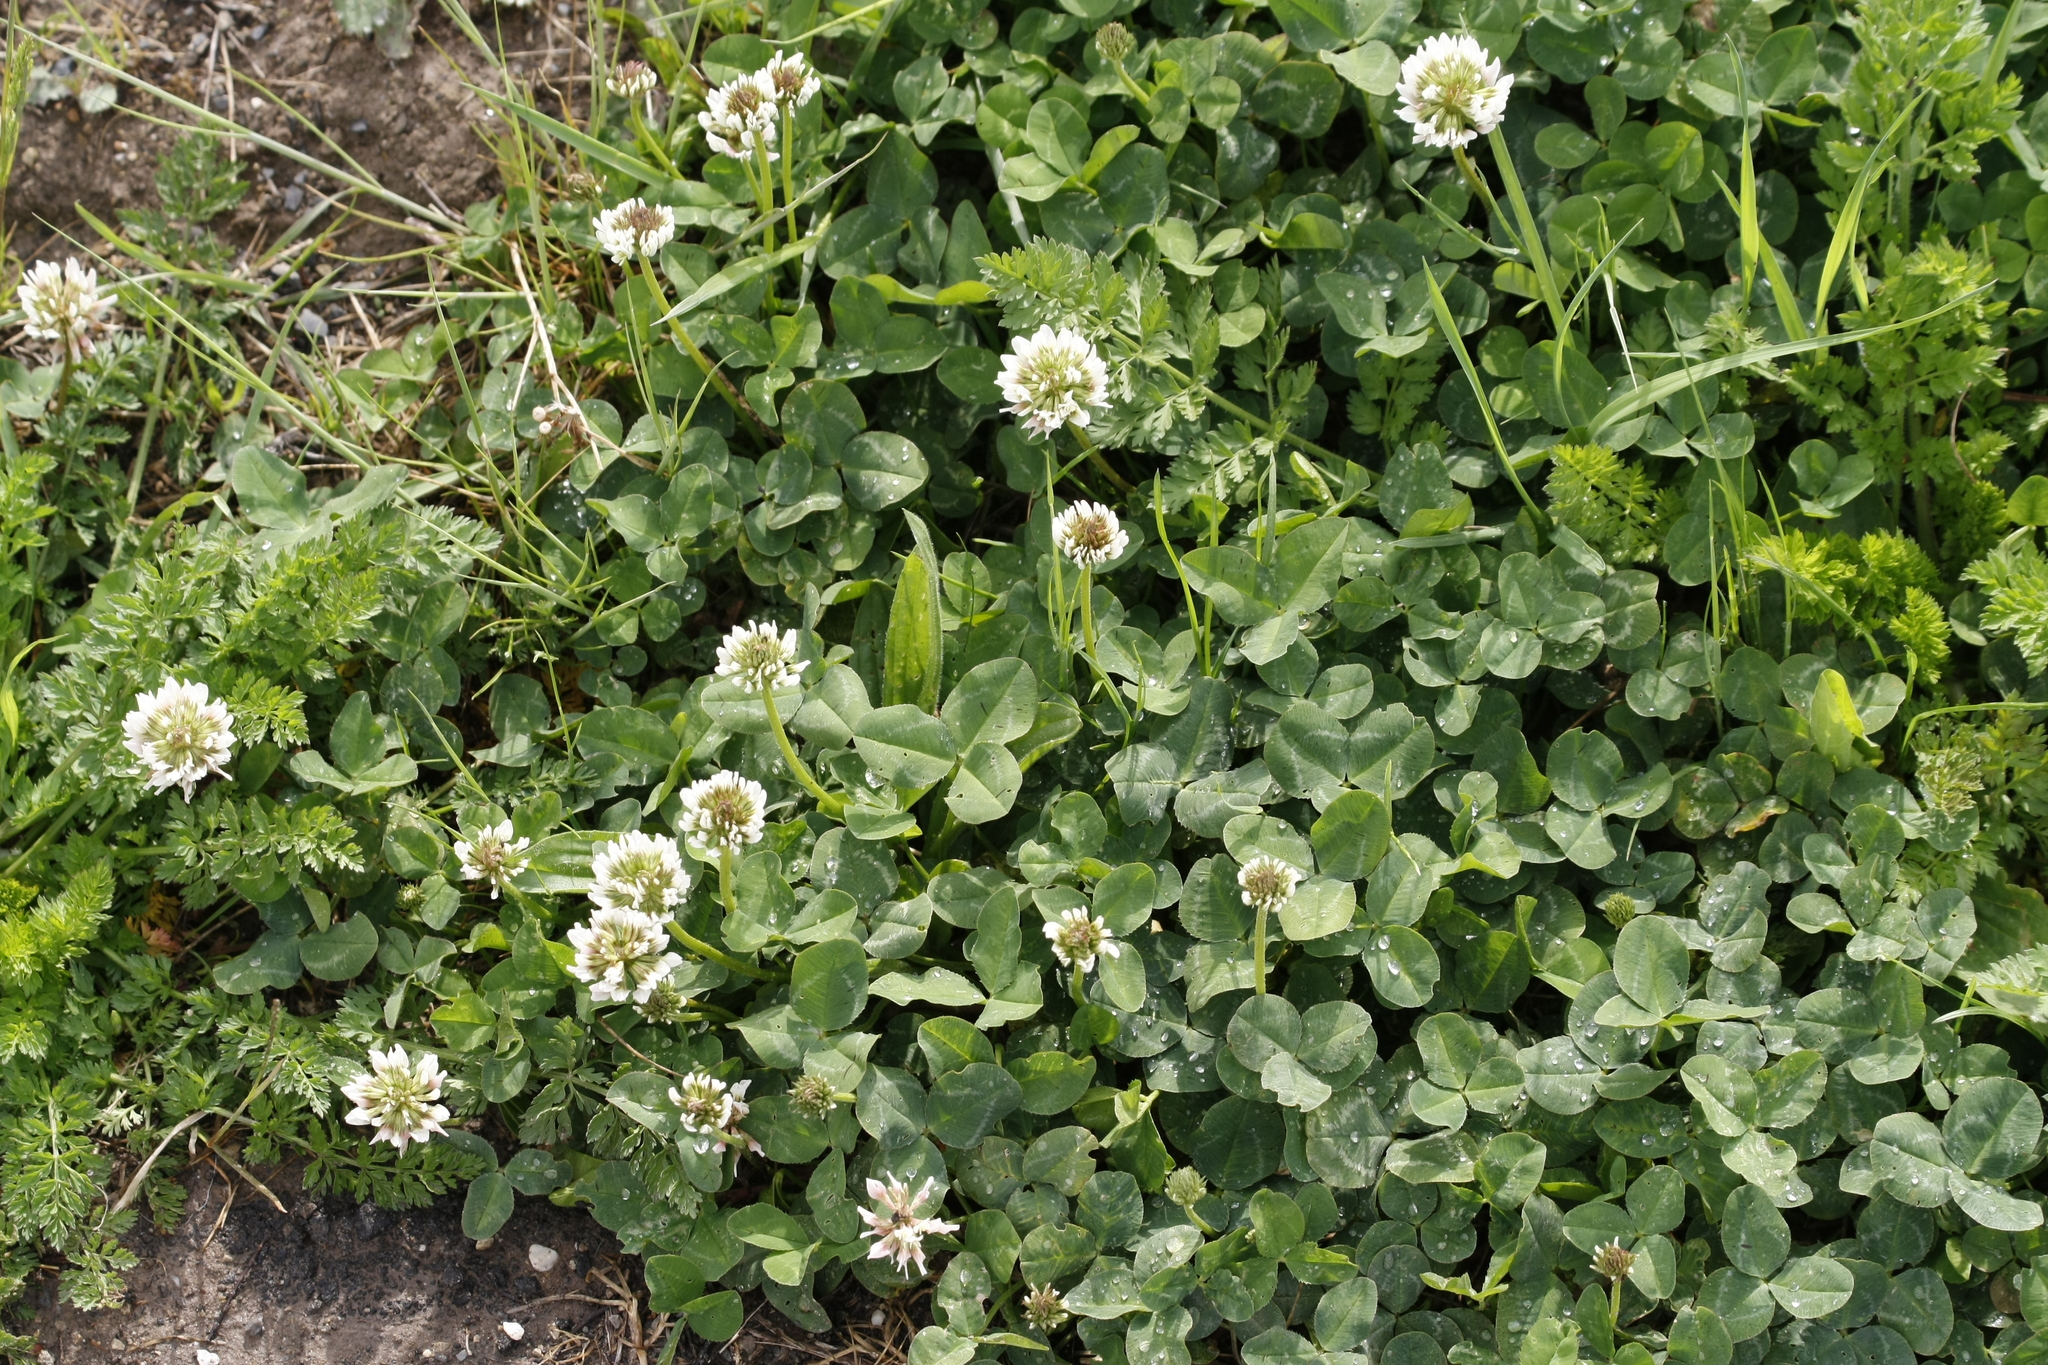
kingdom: Plantae
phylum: Tracheophyta
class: Magnoliopsida
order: Fabales
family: Fabaceae
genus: Trifolium
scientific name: Trifolium repens
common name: White clover
